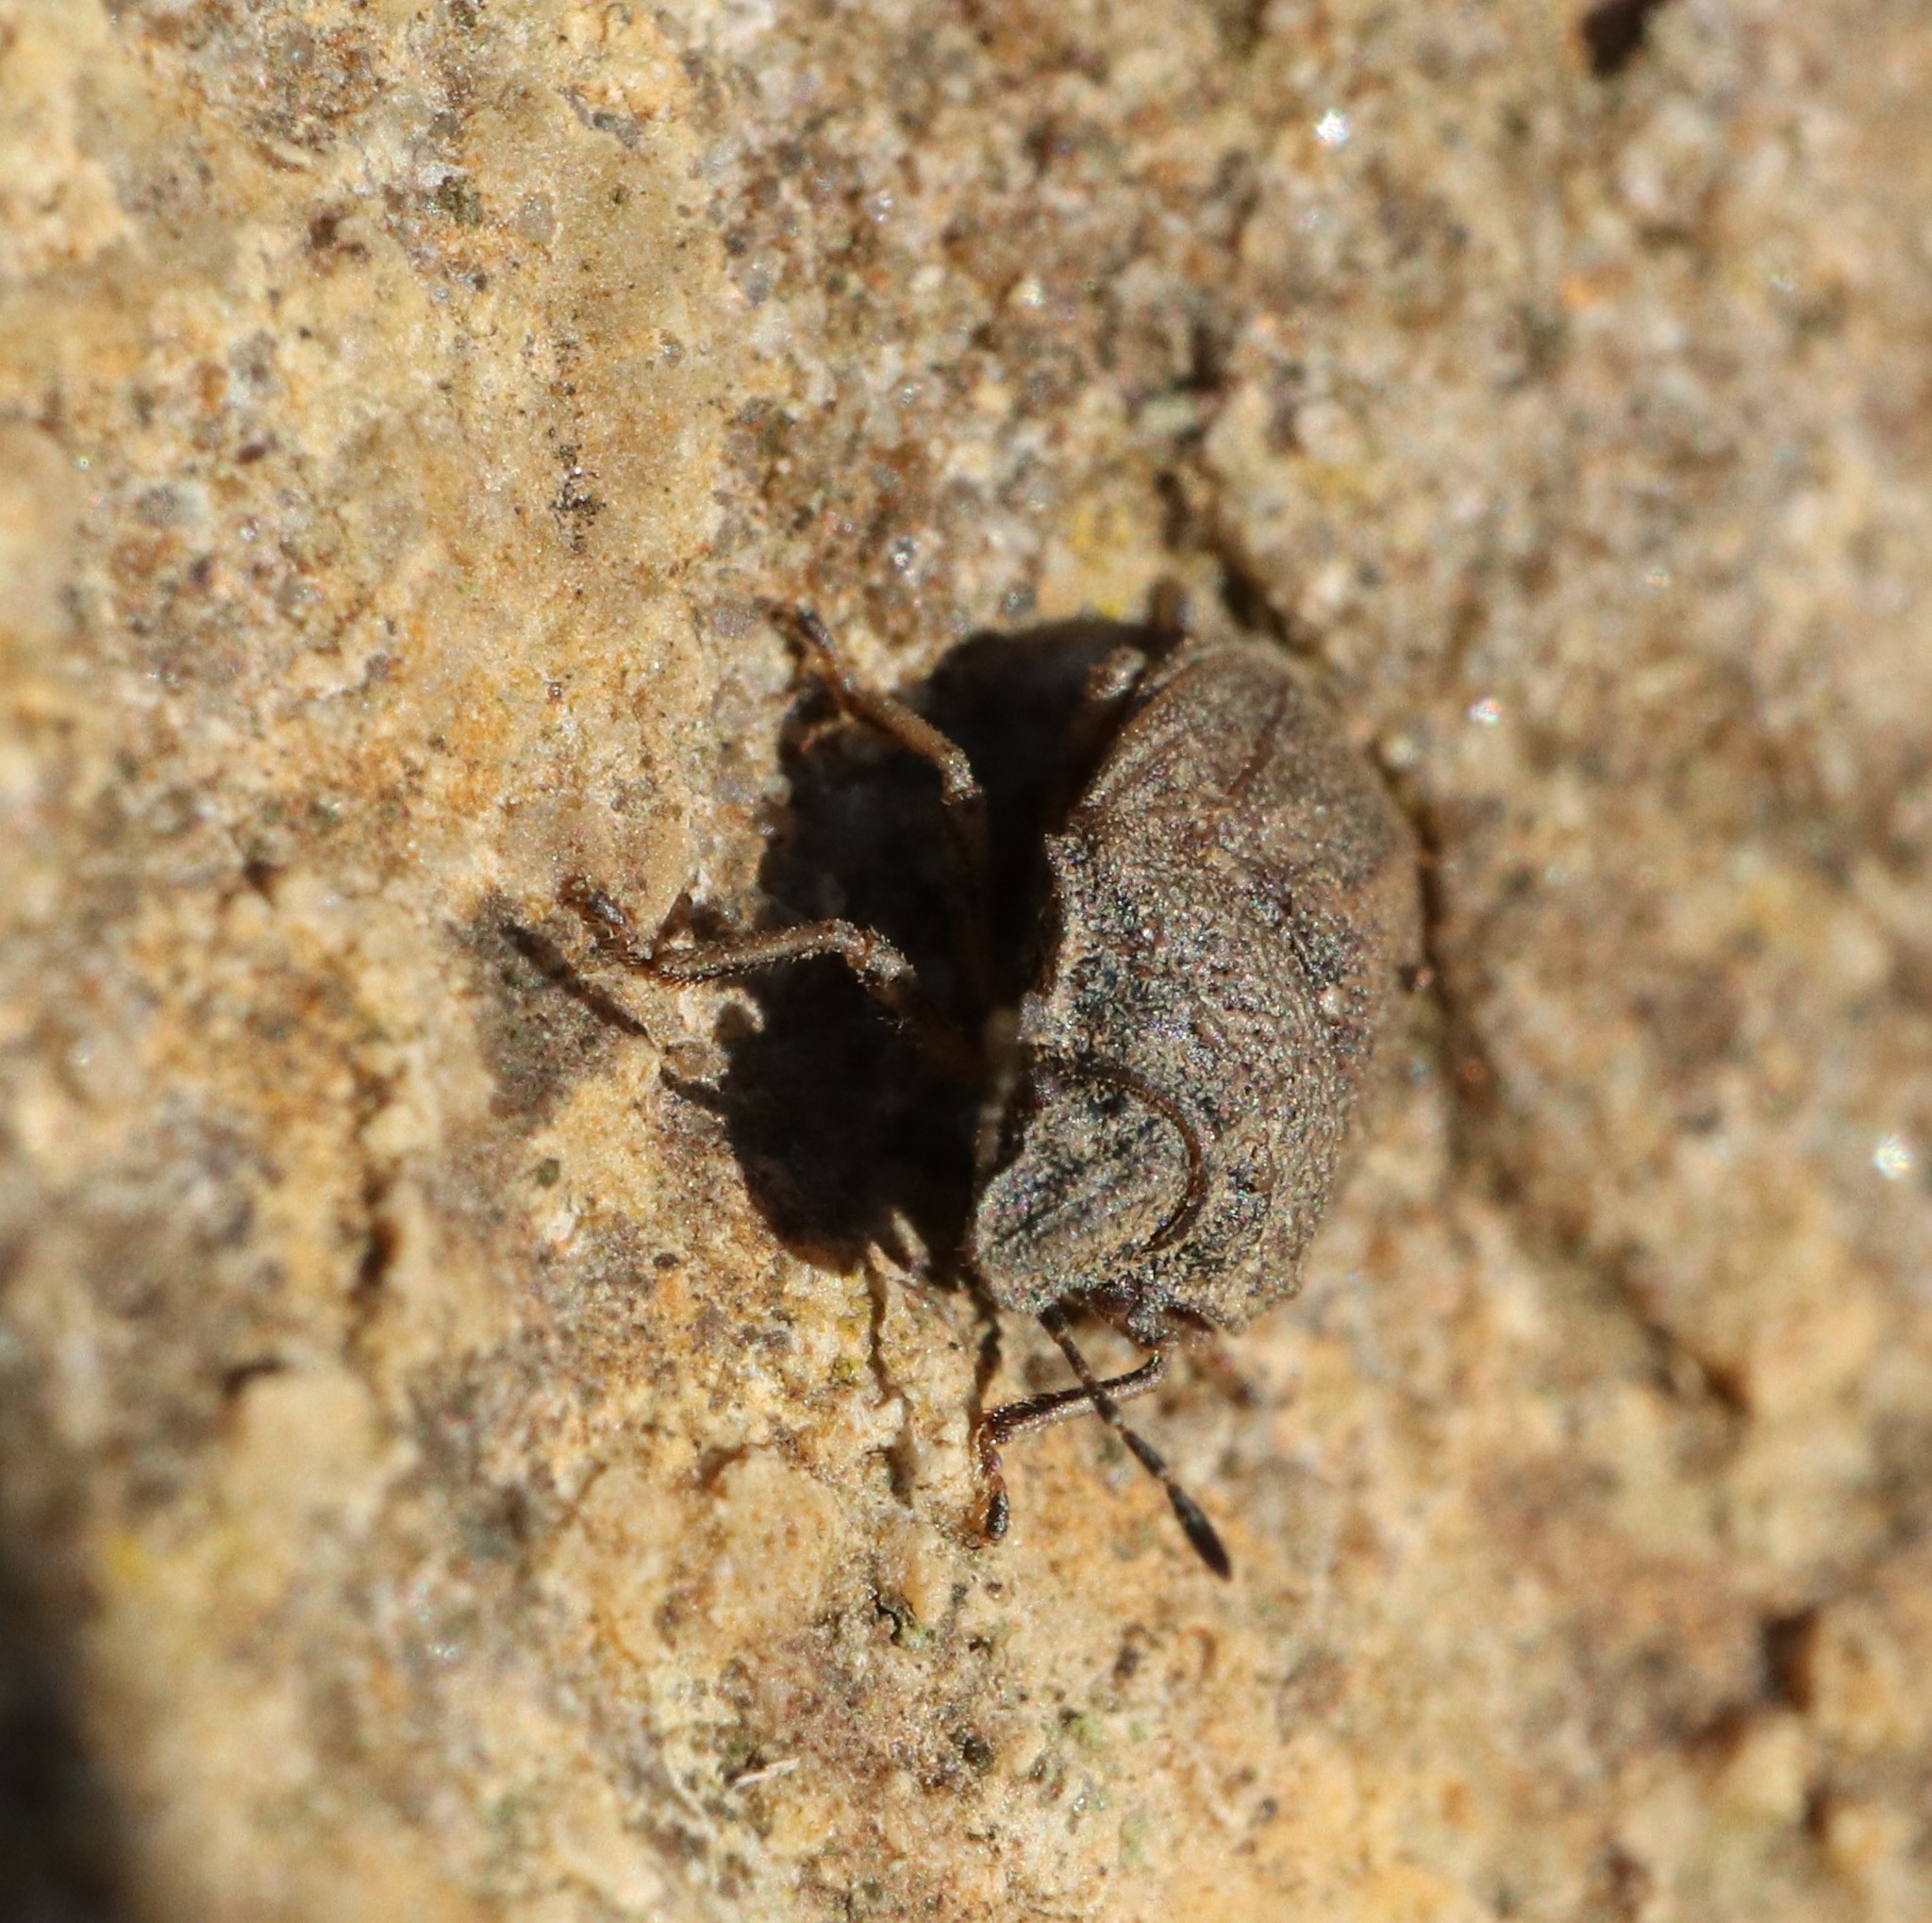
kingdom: Animalia
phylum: Arthropoda
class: Insecta
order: Hemiptera
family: Pentatomidae
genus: Podops
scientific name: Podops inunctus
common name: Turtle bug
